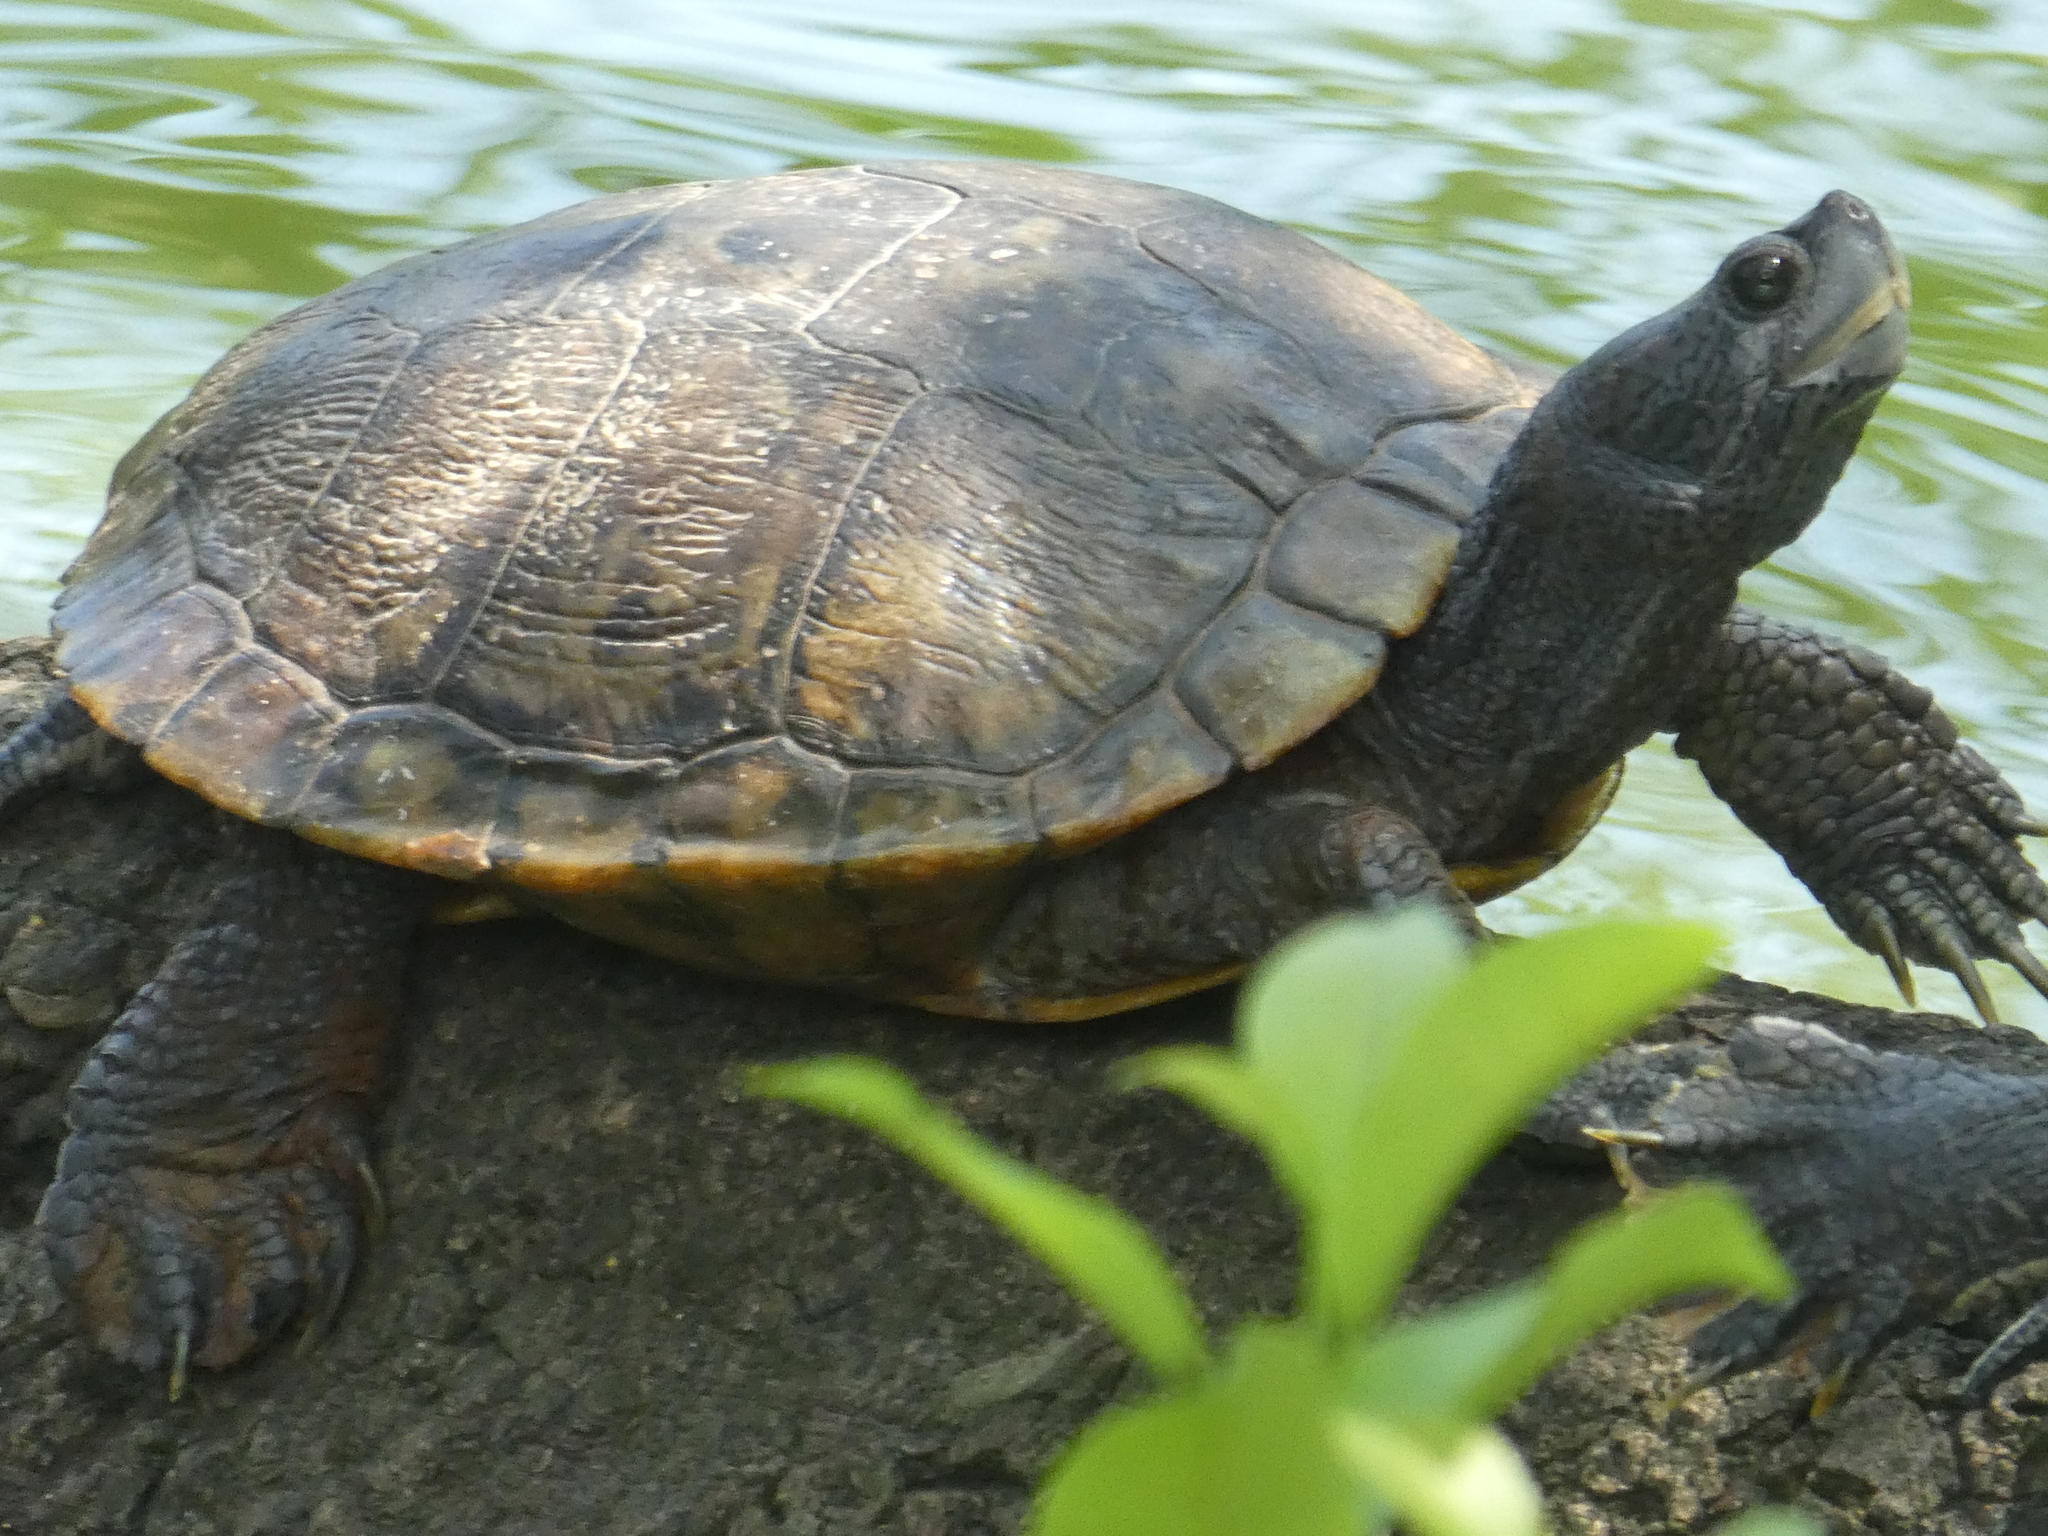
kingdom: Animalia
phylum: Chordata
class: Testudines
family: Emydidae
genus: Trachemys
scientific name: Trachemys scripta
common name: Slider
